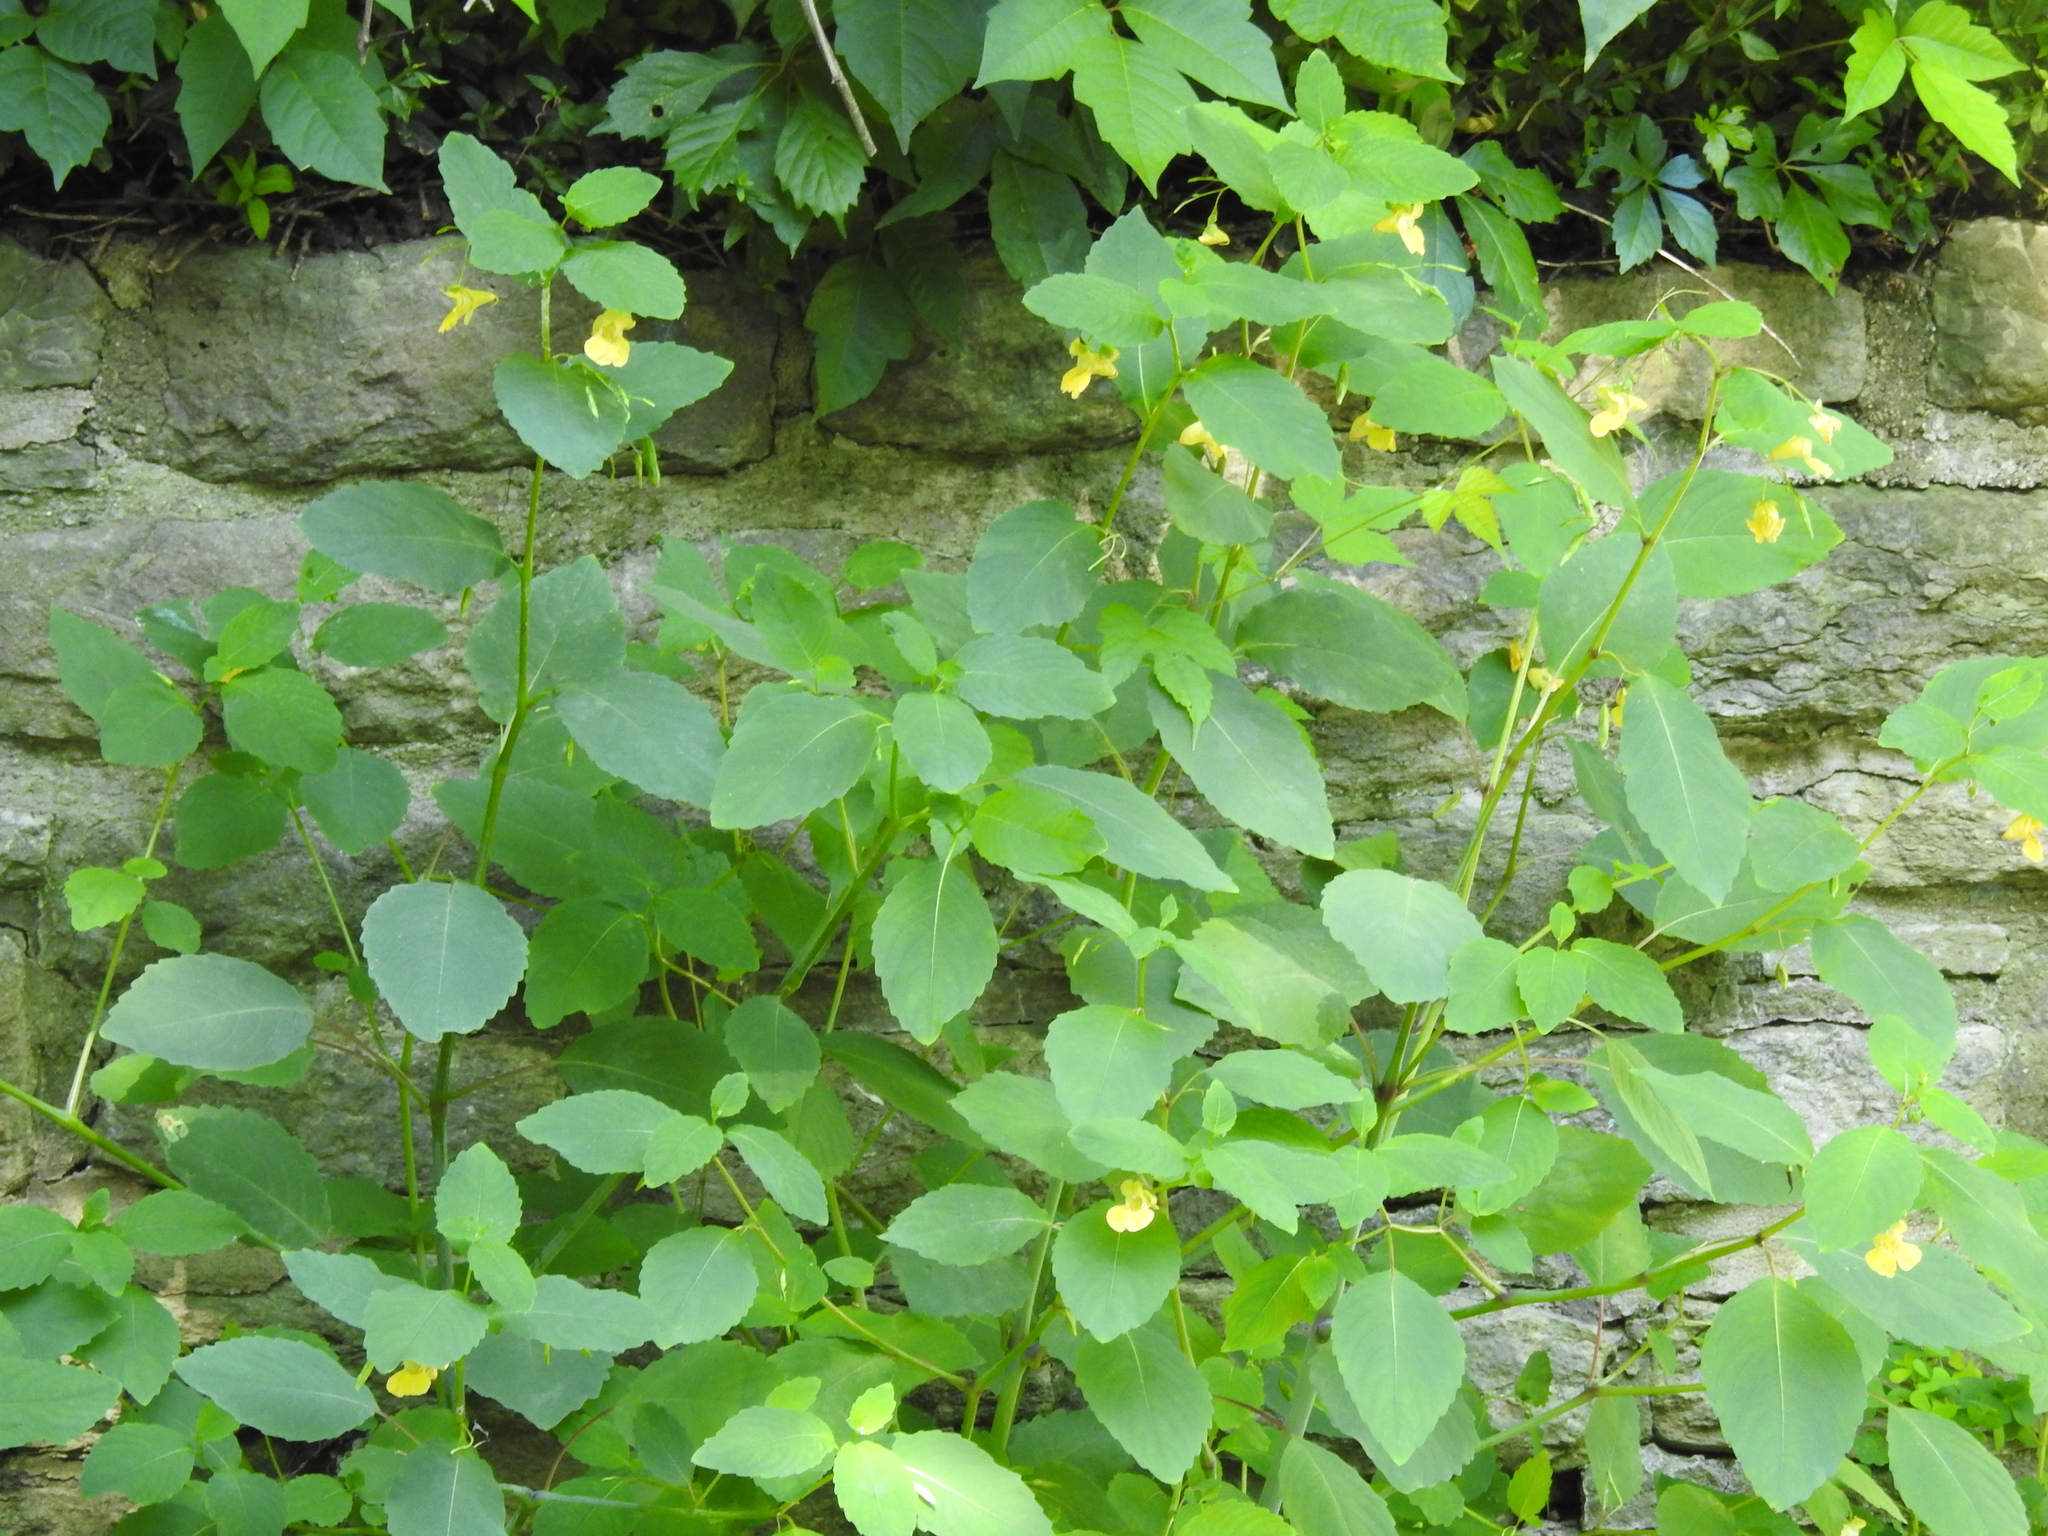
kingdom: Plantae
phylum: Tracheophyta
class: Magnoliopsida
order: Ericales
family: Balsaminaceae
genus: Impatiens
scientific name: Impatiens pallida
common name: Pale snapweed
